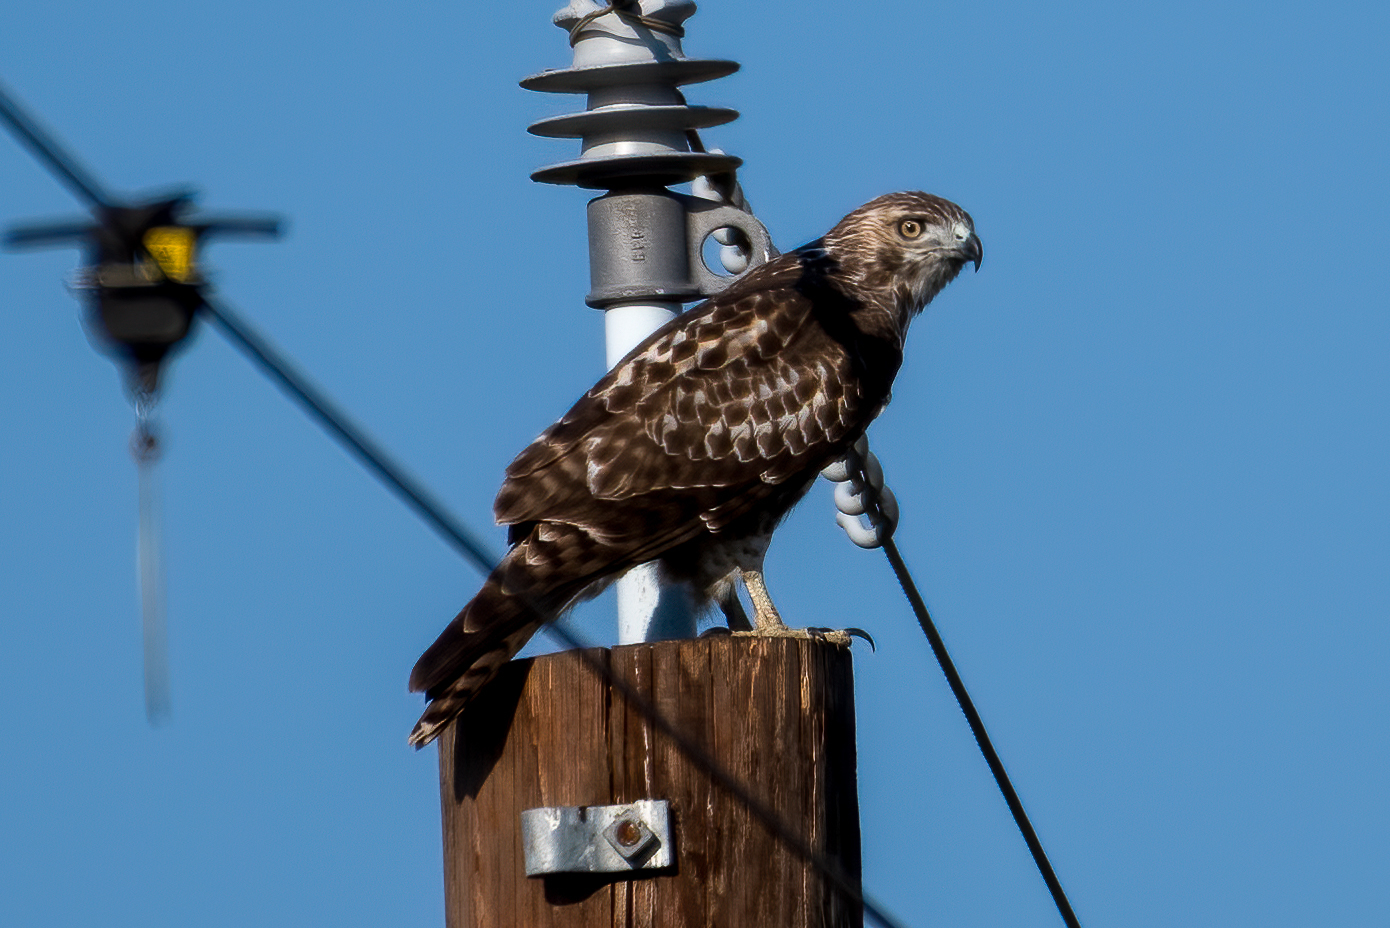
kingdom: Animalia
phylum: Chordata
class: Aves
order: Accipitriformes
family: Accipitridae
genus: Buteo
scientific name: Buteo jamaicensis
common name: Red-tailed hawk
